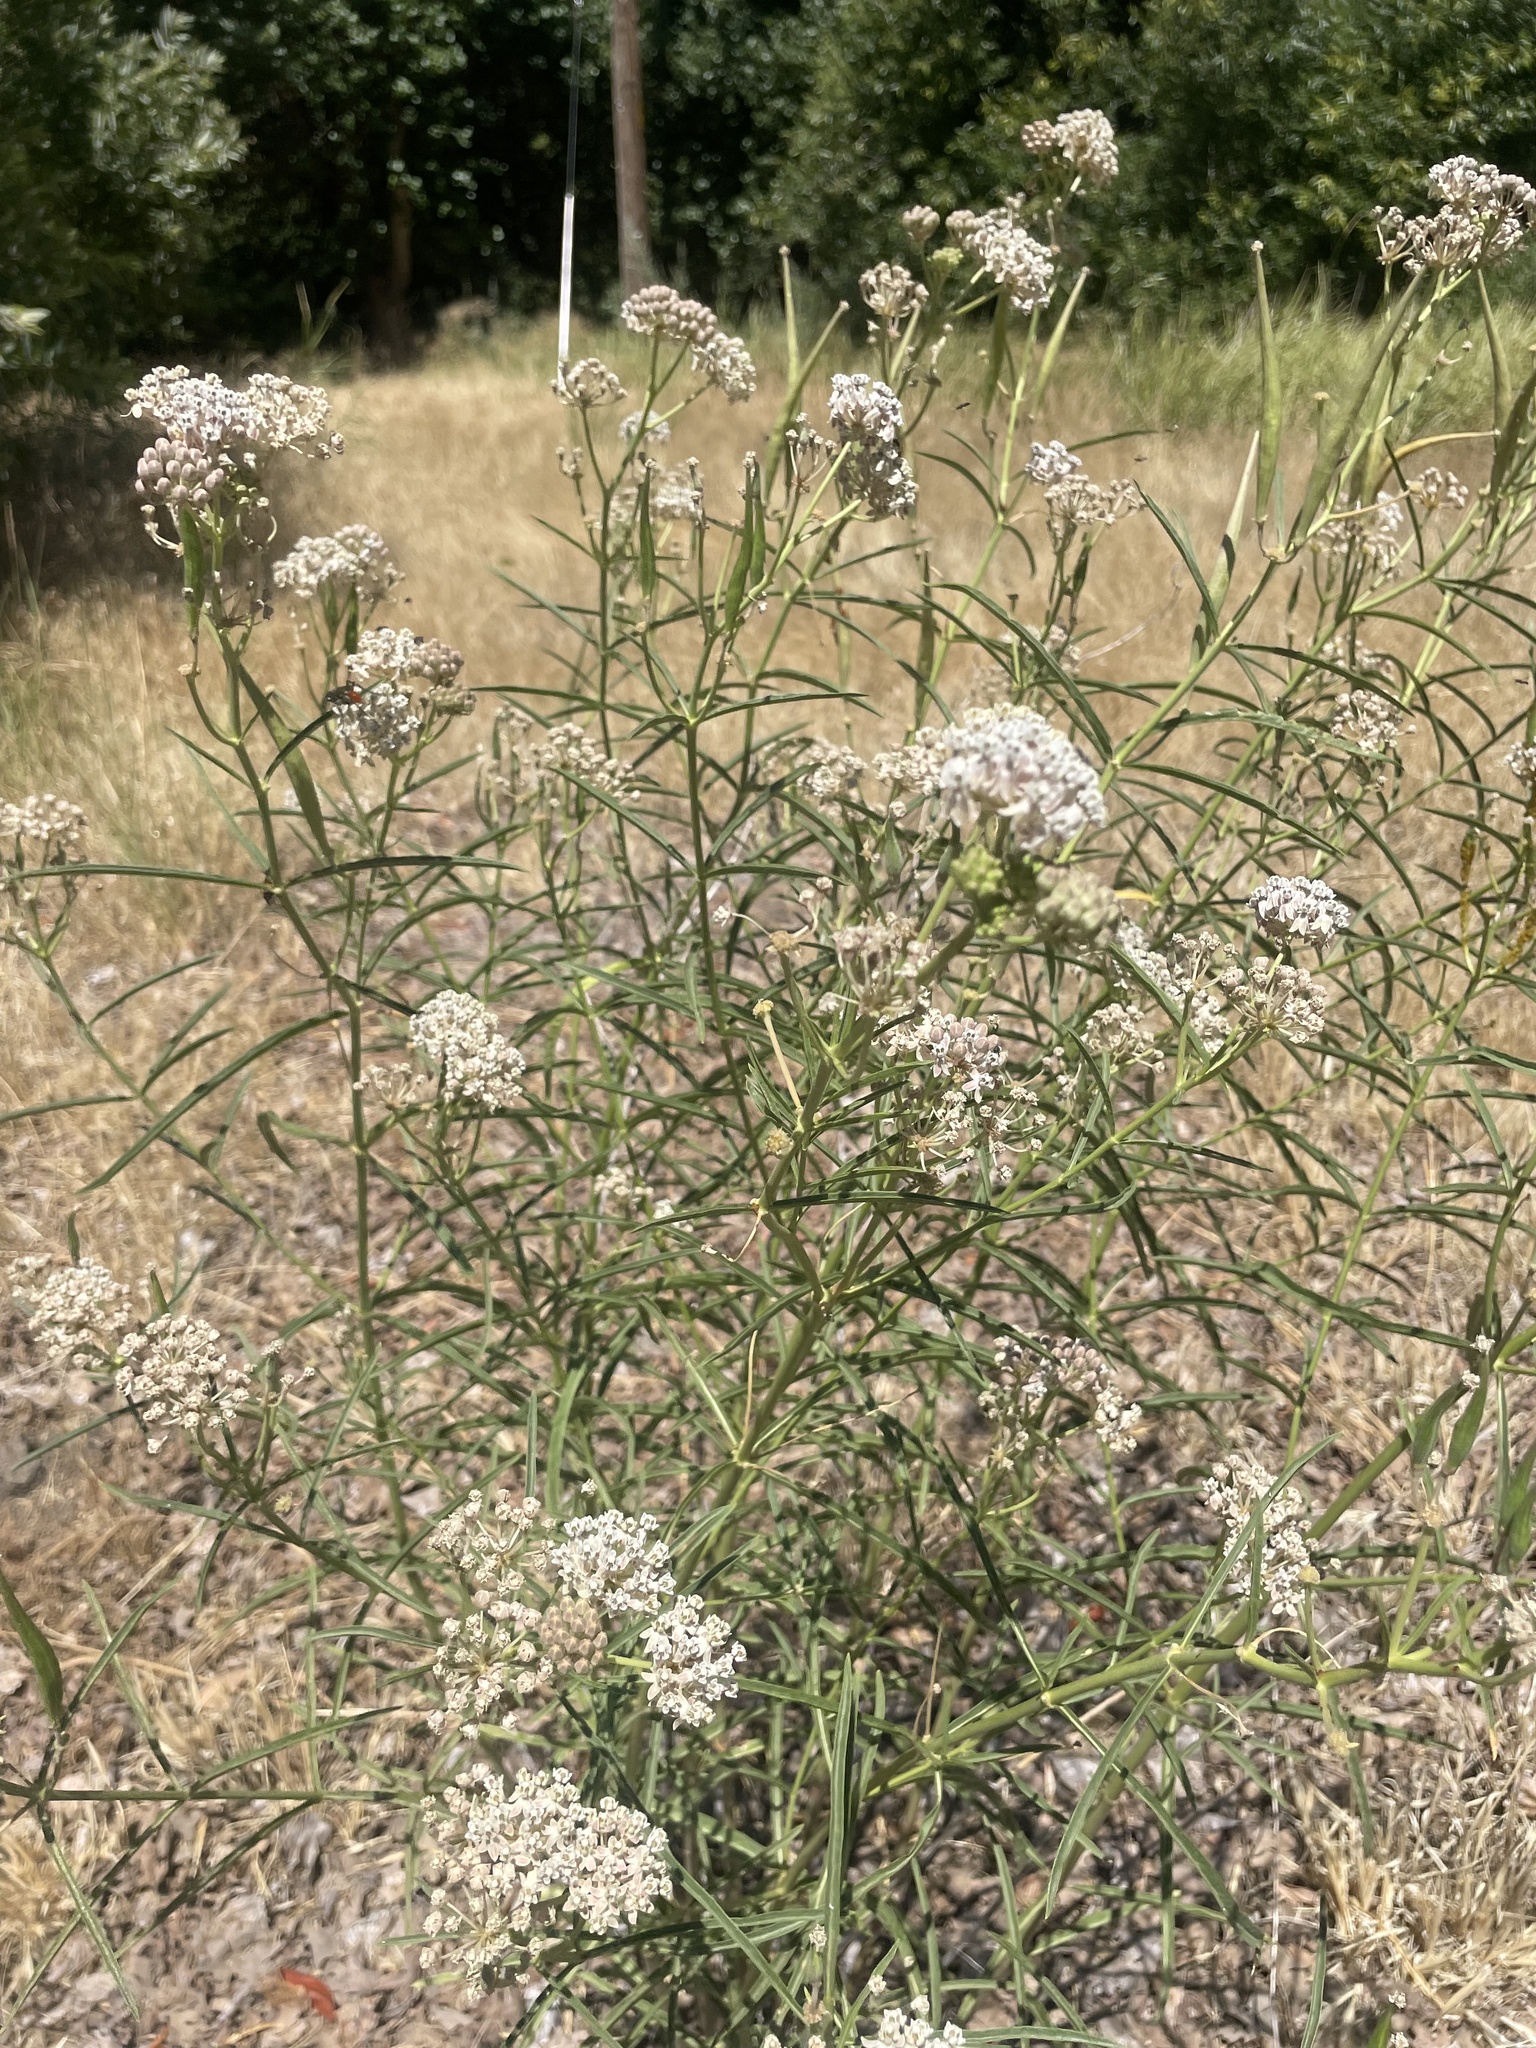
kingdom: Plantae
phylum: Tracheophyta
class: Magnoliopsida
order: Gentianales
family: Apocynaceae
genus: Asclepias
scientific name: Asclepias fascicularis
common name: Mexican milkweed
